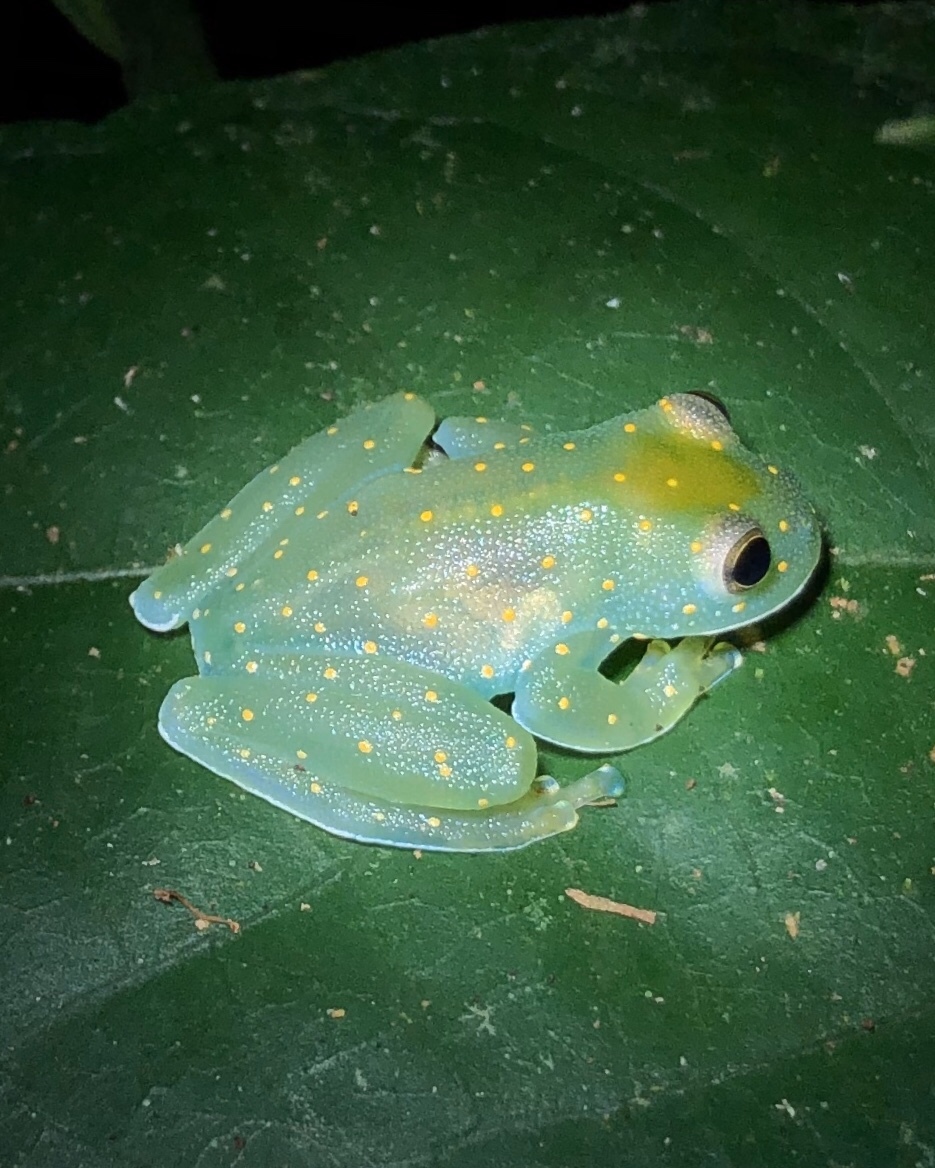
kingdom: Animalia
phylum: Chordata
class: Amphibia
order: Anura
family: Centrolenidae
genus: Cochranella
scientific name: Cochranella euknemos
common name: San jose cochran frog
